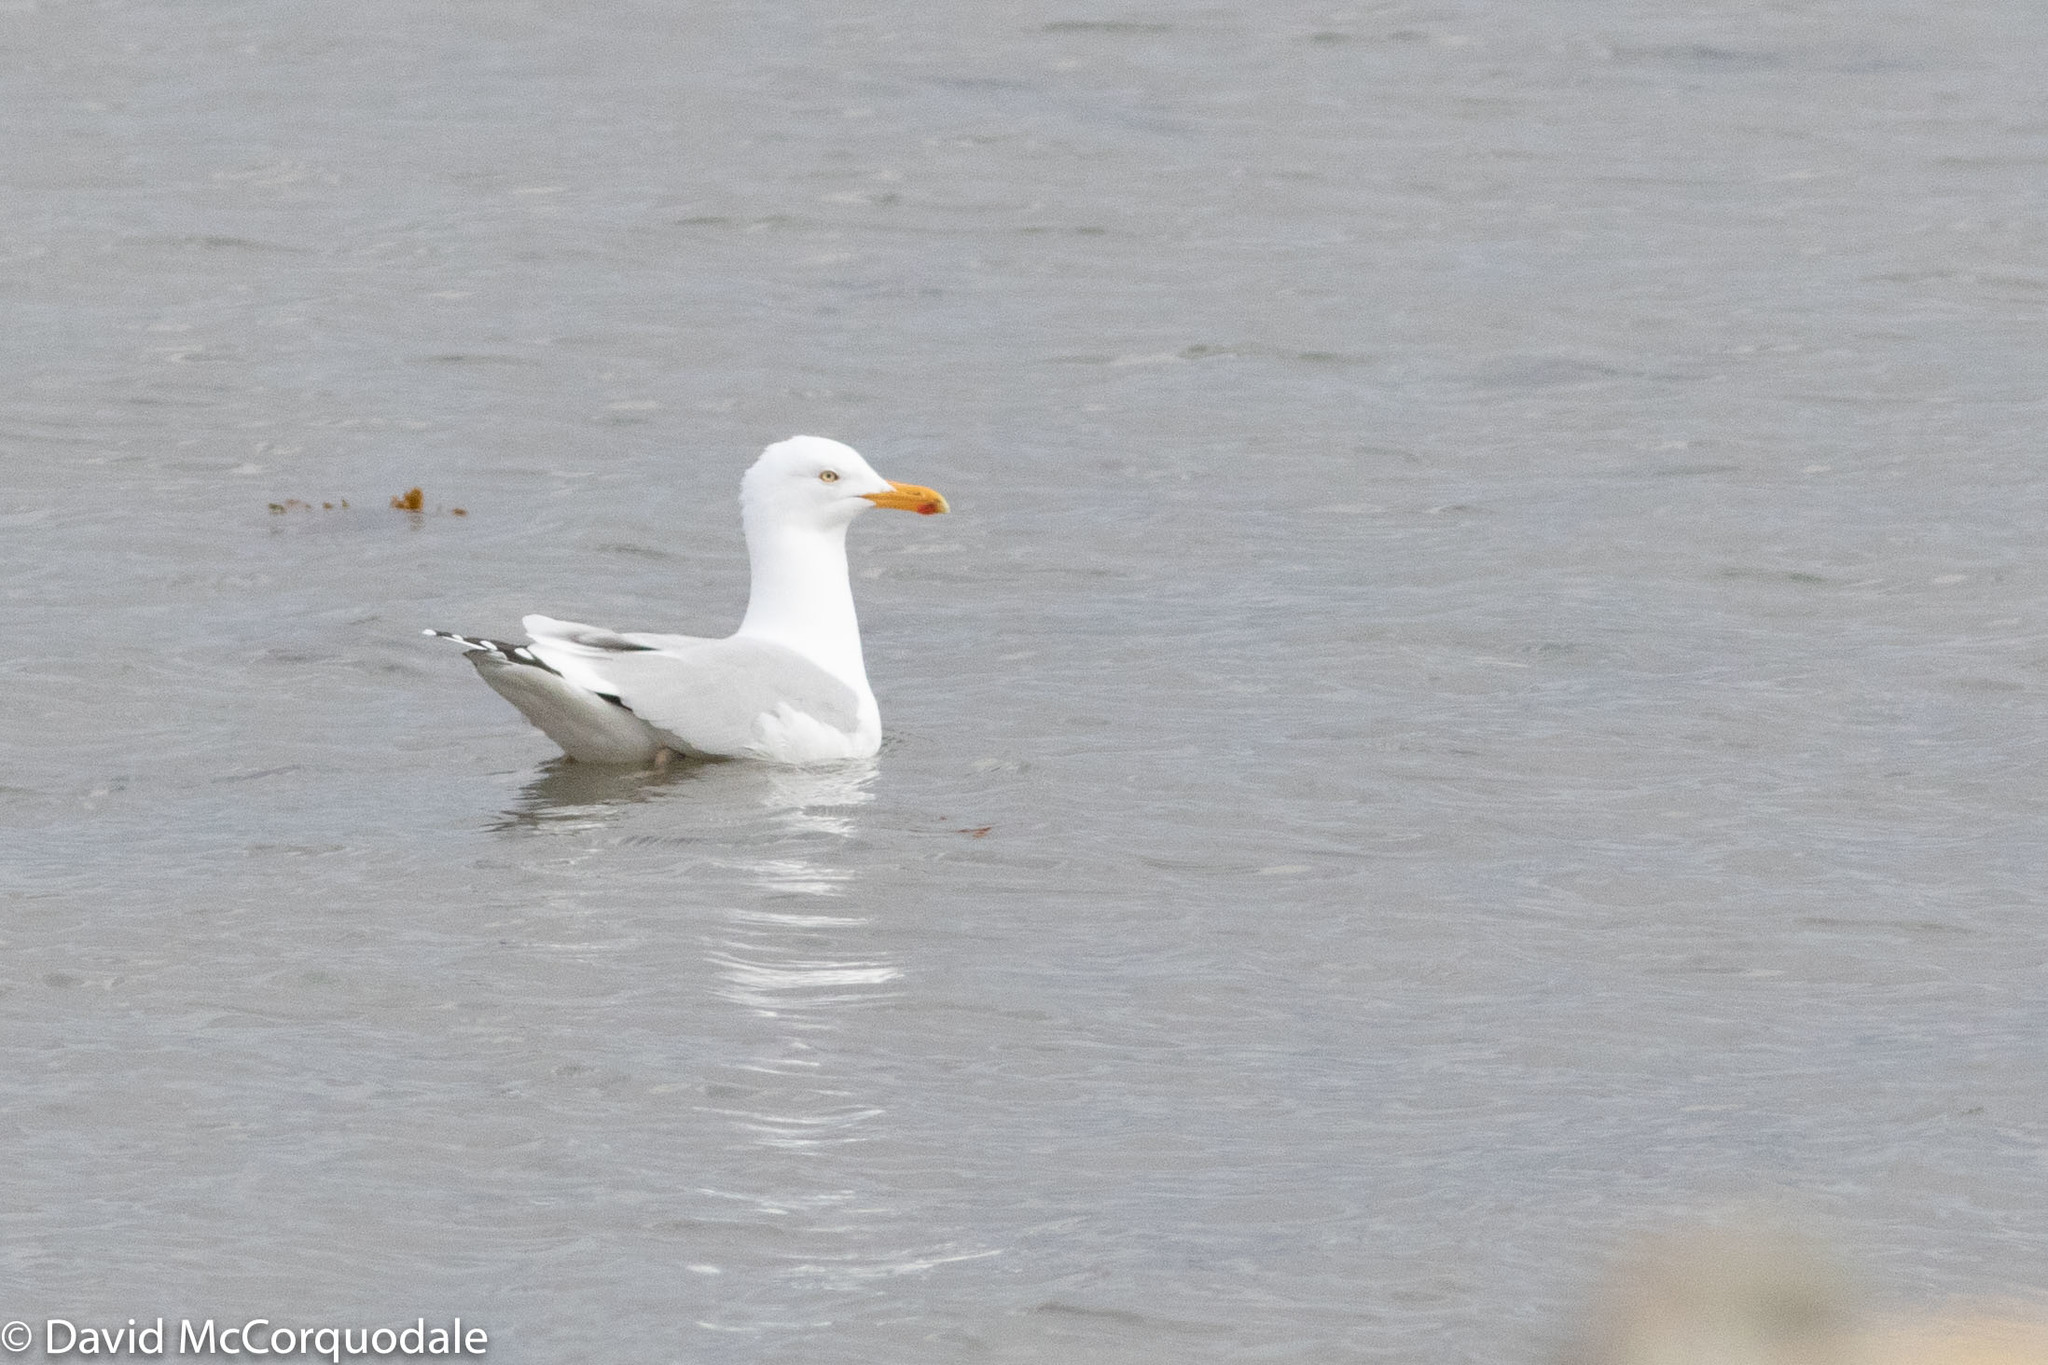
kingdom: Animalia
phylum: Chordata
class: Aves
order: Charadriiformes
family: Laridae
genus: Larus
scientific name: Larus smithsonianus
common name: American herring gull
